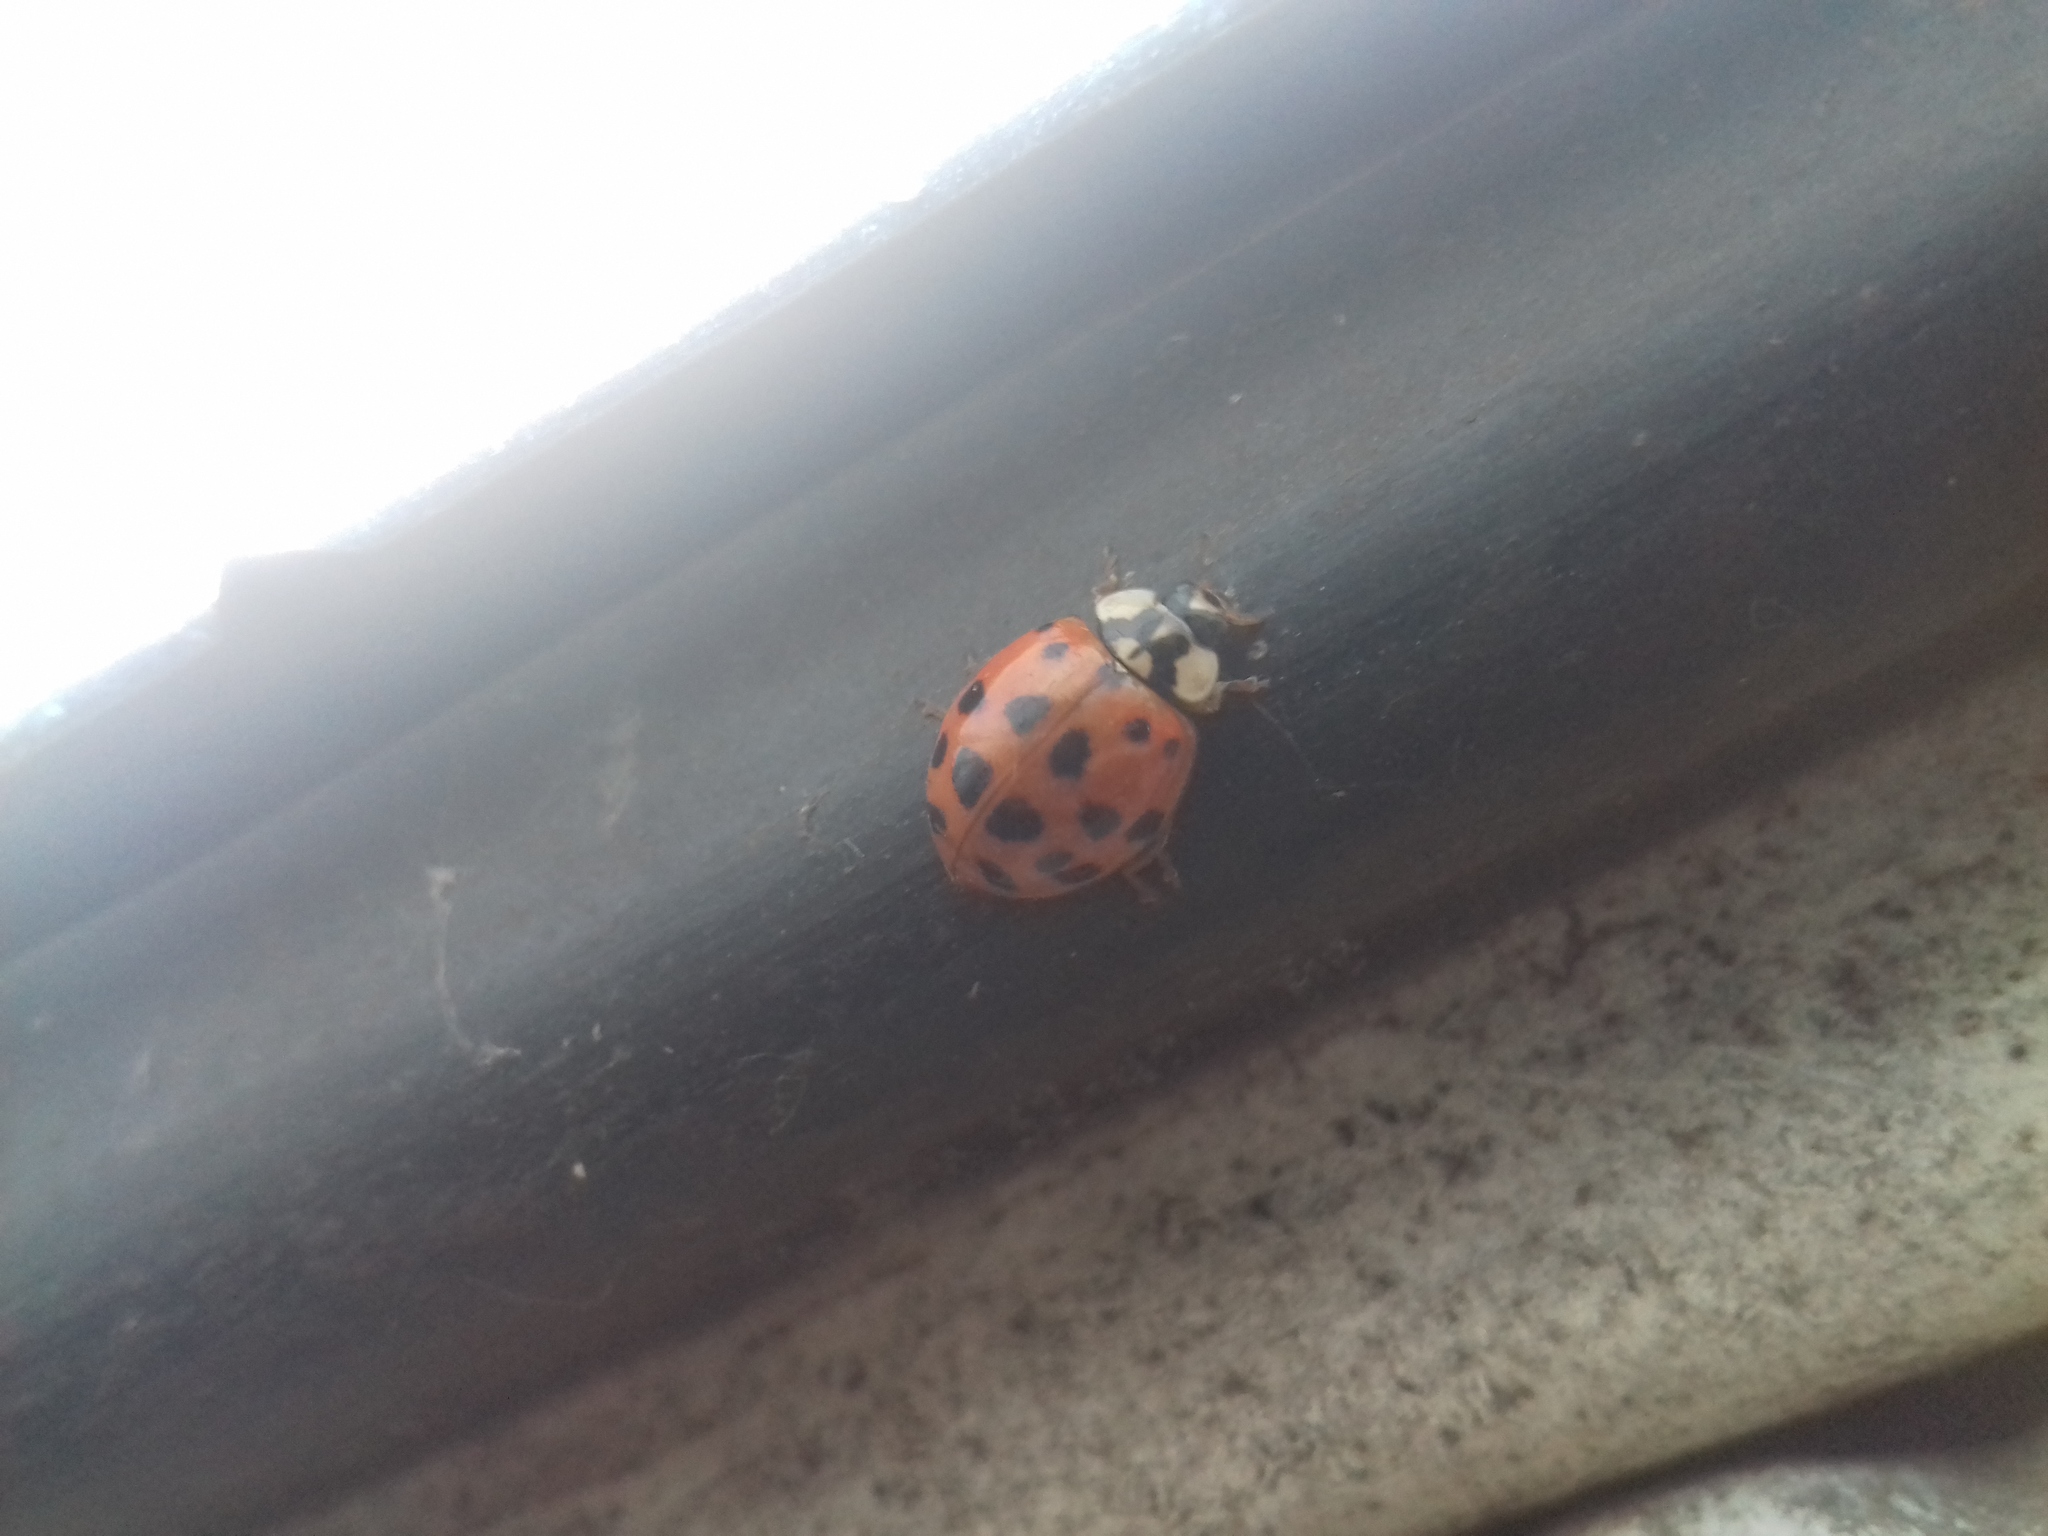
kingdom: Animalia
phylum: Arthropoda
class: Insecta
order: Coleoptera
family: Coccinellidae
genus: Harmonia
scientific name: Harmonia axyridis
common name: Harlequin ladybird
